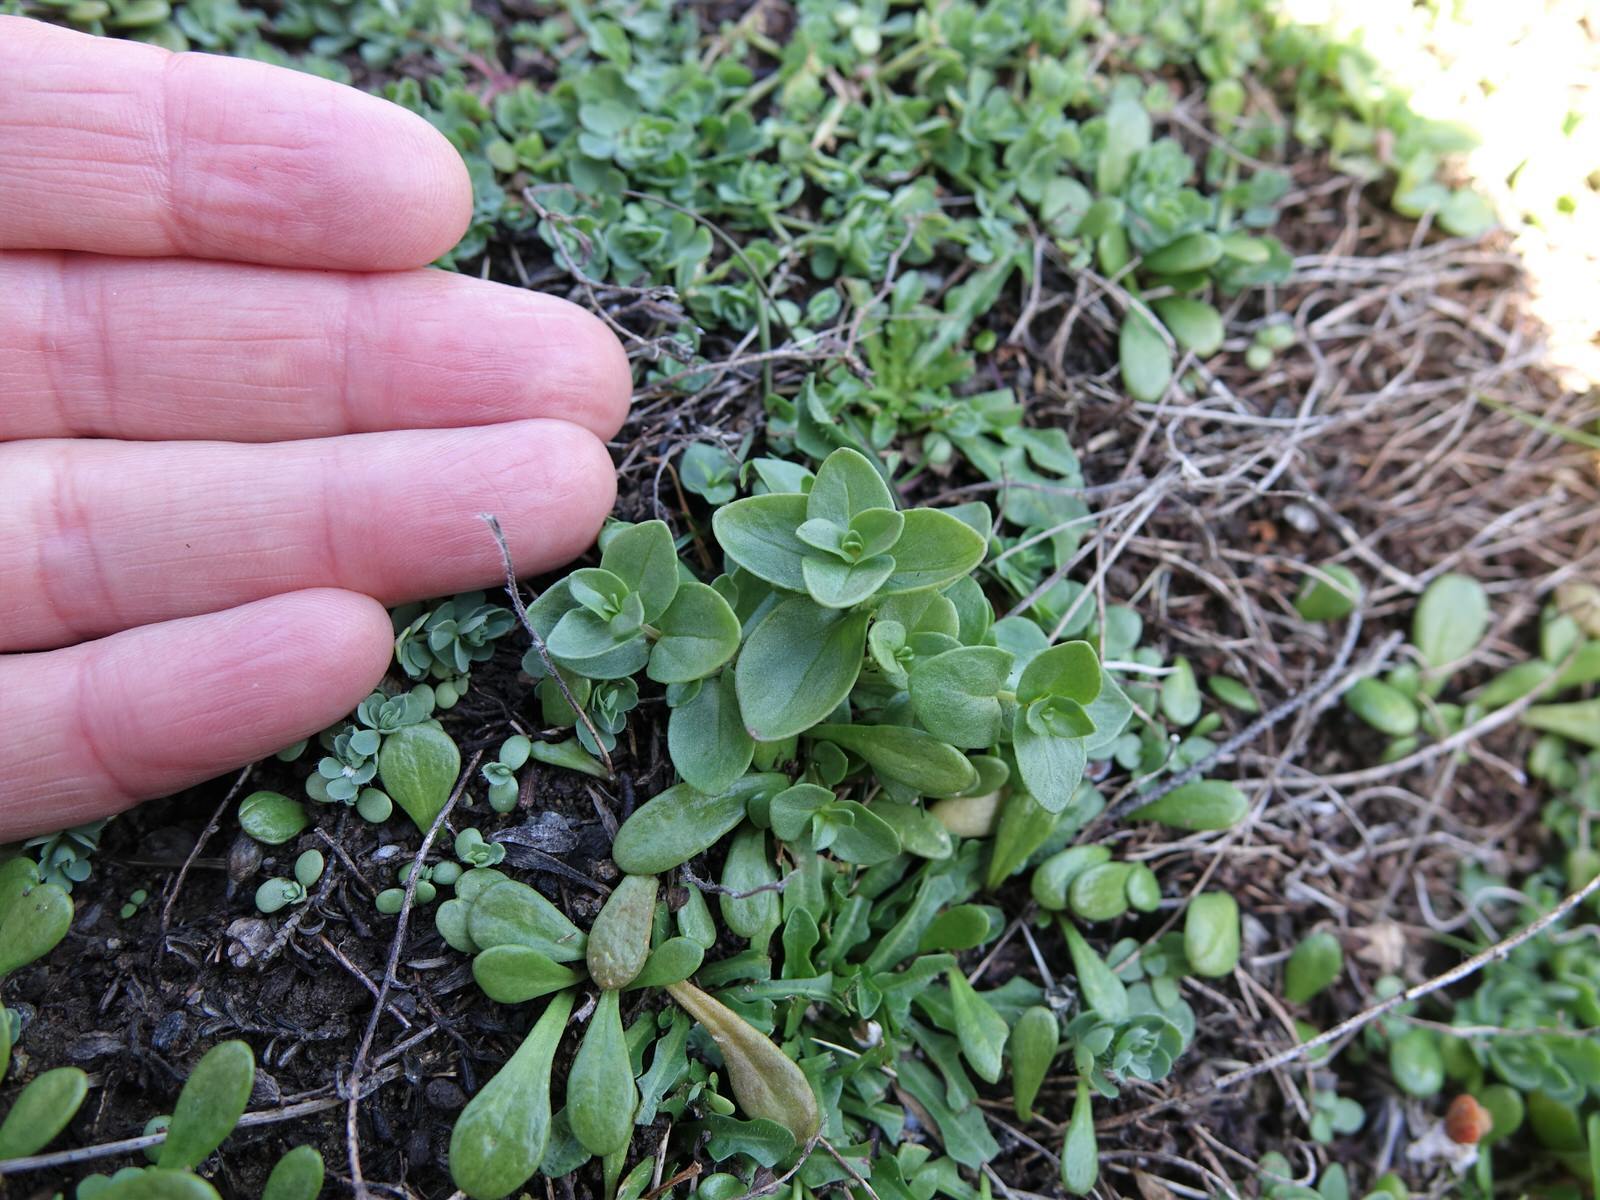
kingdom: Plantae
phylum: Tracheophyta
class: Magnoliopsida
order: Ericales
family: Primulaceae
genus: Lysimachia
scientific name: Lysimachia arvensis
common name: Scarlet pimpernel
